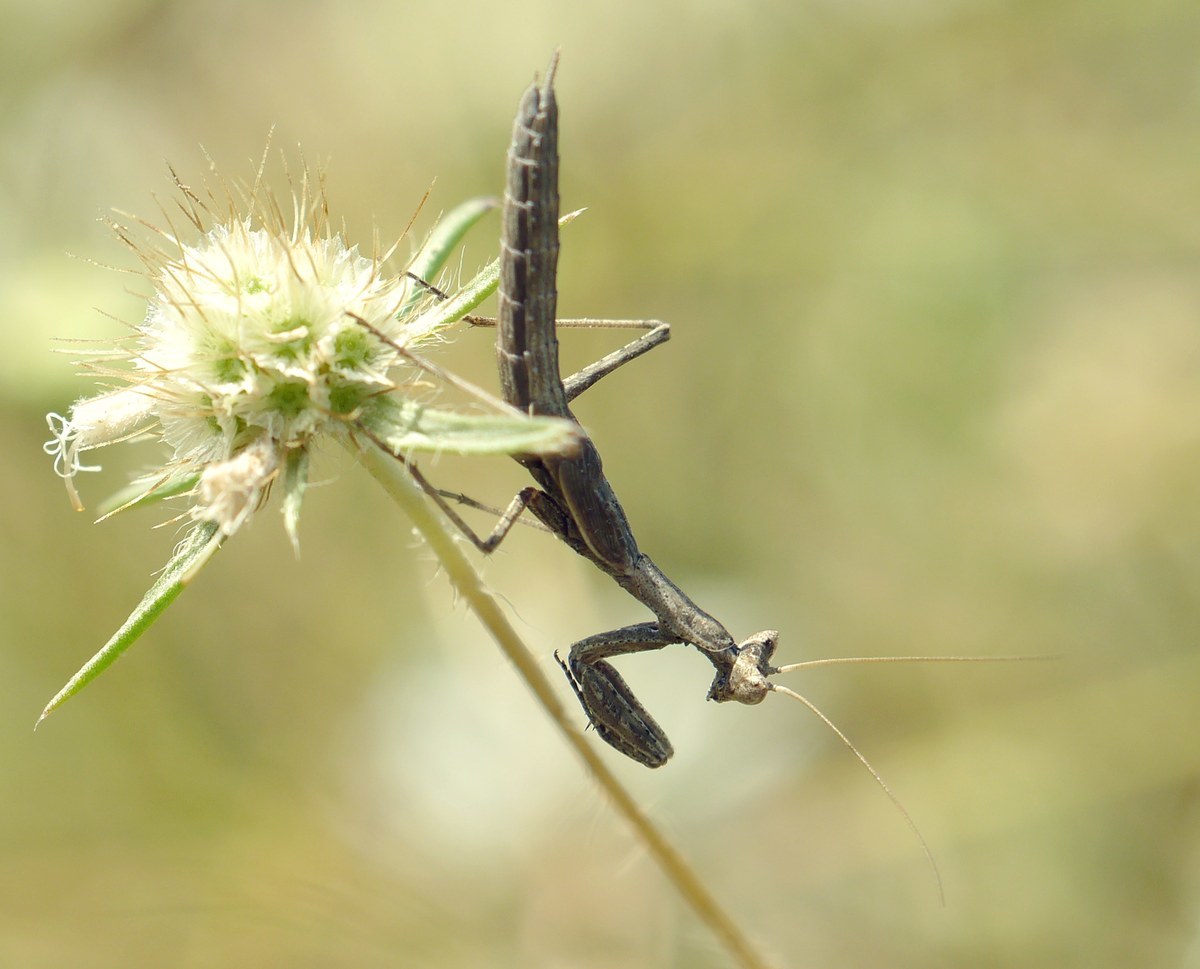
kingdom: Animalia
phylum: Arthropoda
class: Insecta
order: Mantodea
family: Amelidae
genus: Ameles
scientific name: Ameles heldreichi
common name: Heldreich's dwarf mantis
